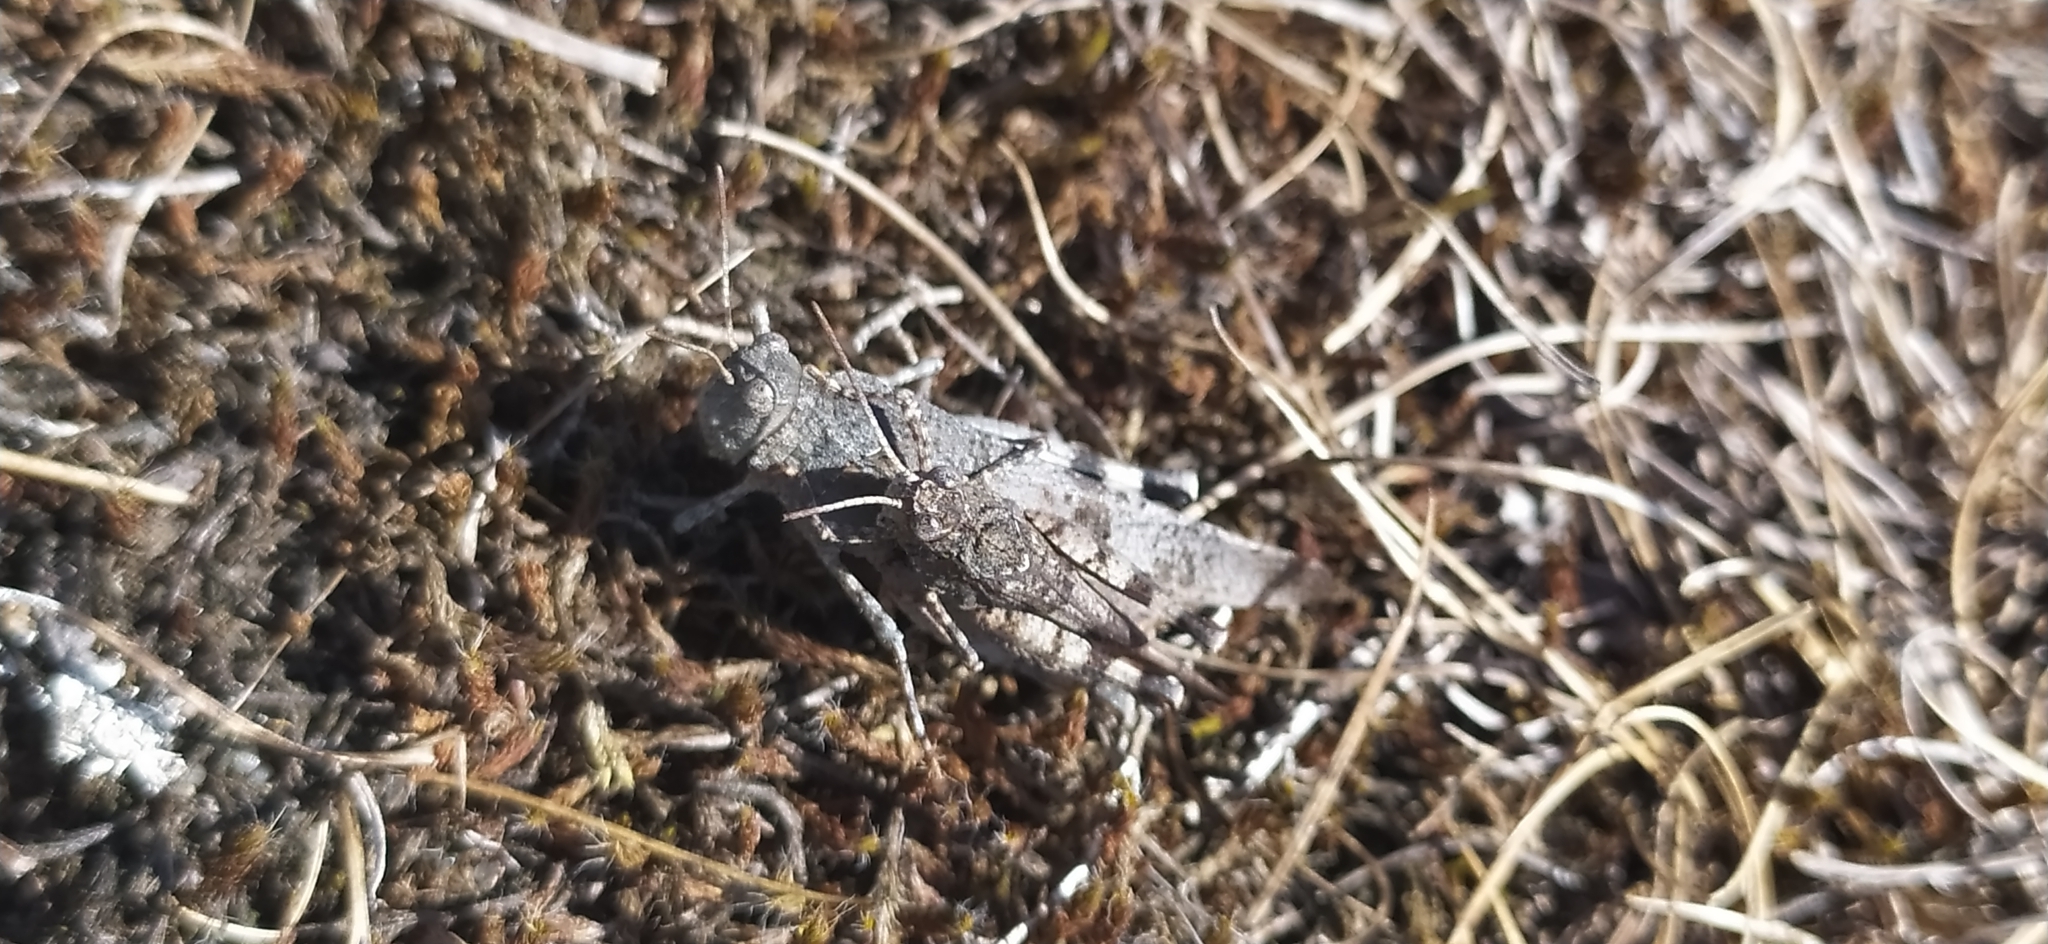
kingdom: Animalia
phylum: Arthropoda
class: Insecta
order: Orthoptera
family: Acrididae
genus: Oedipoda
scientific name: Oedipoda caerulescens
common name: Blue-winged grasshopper
